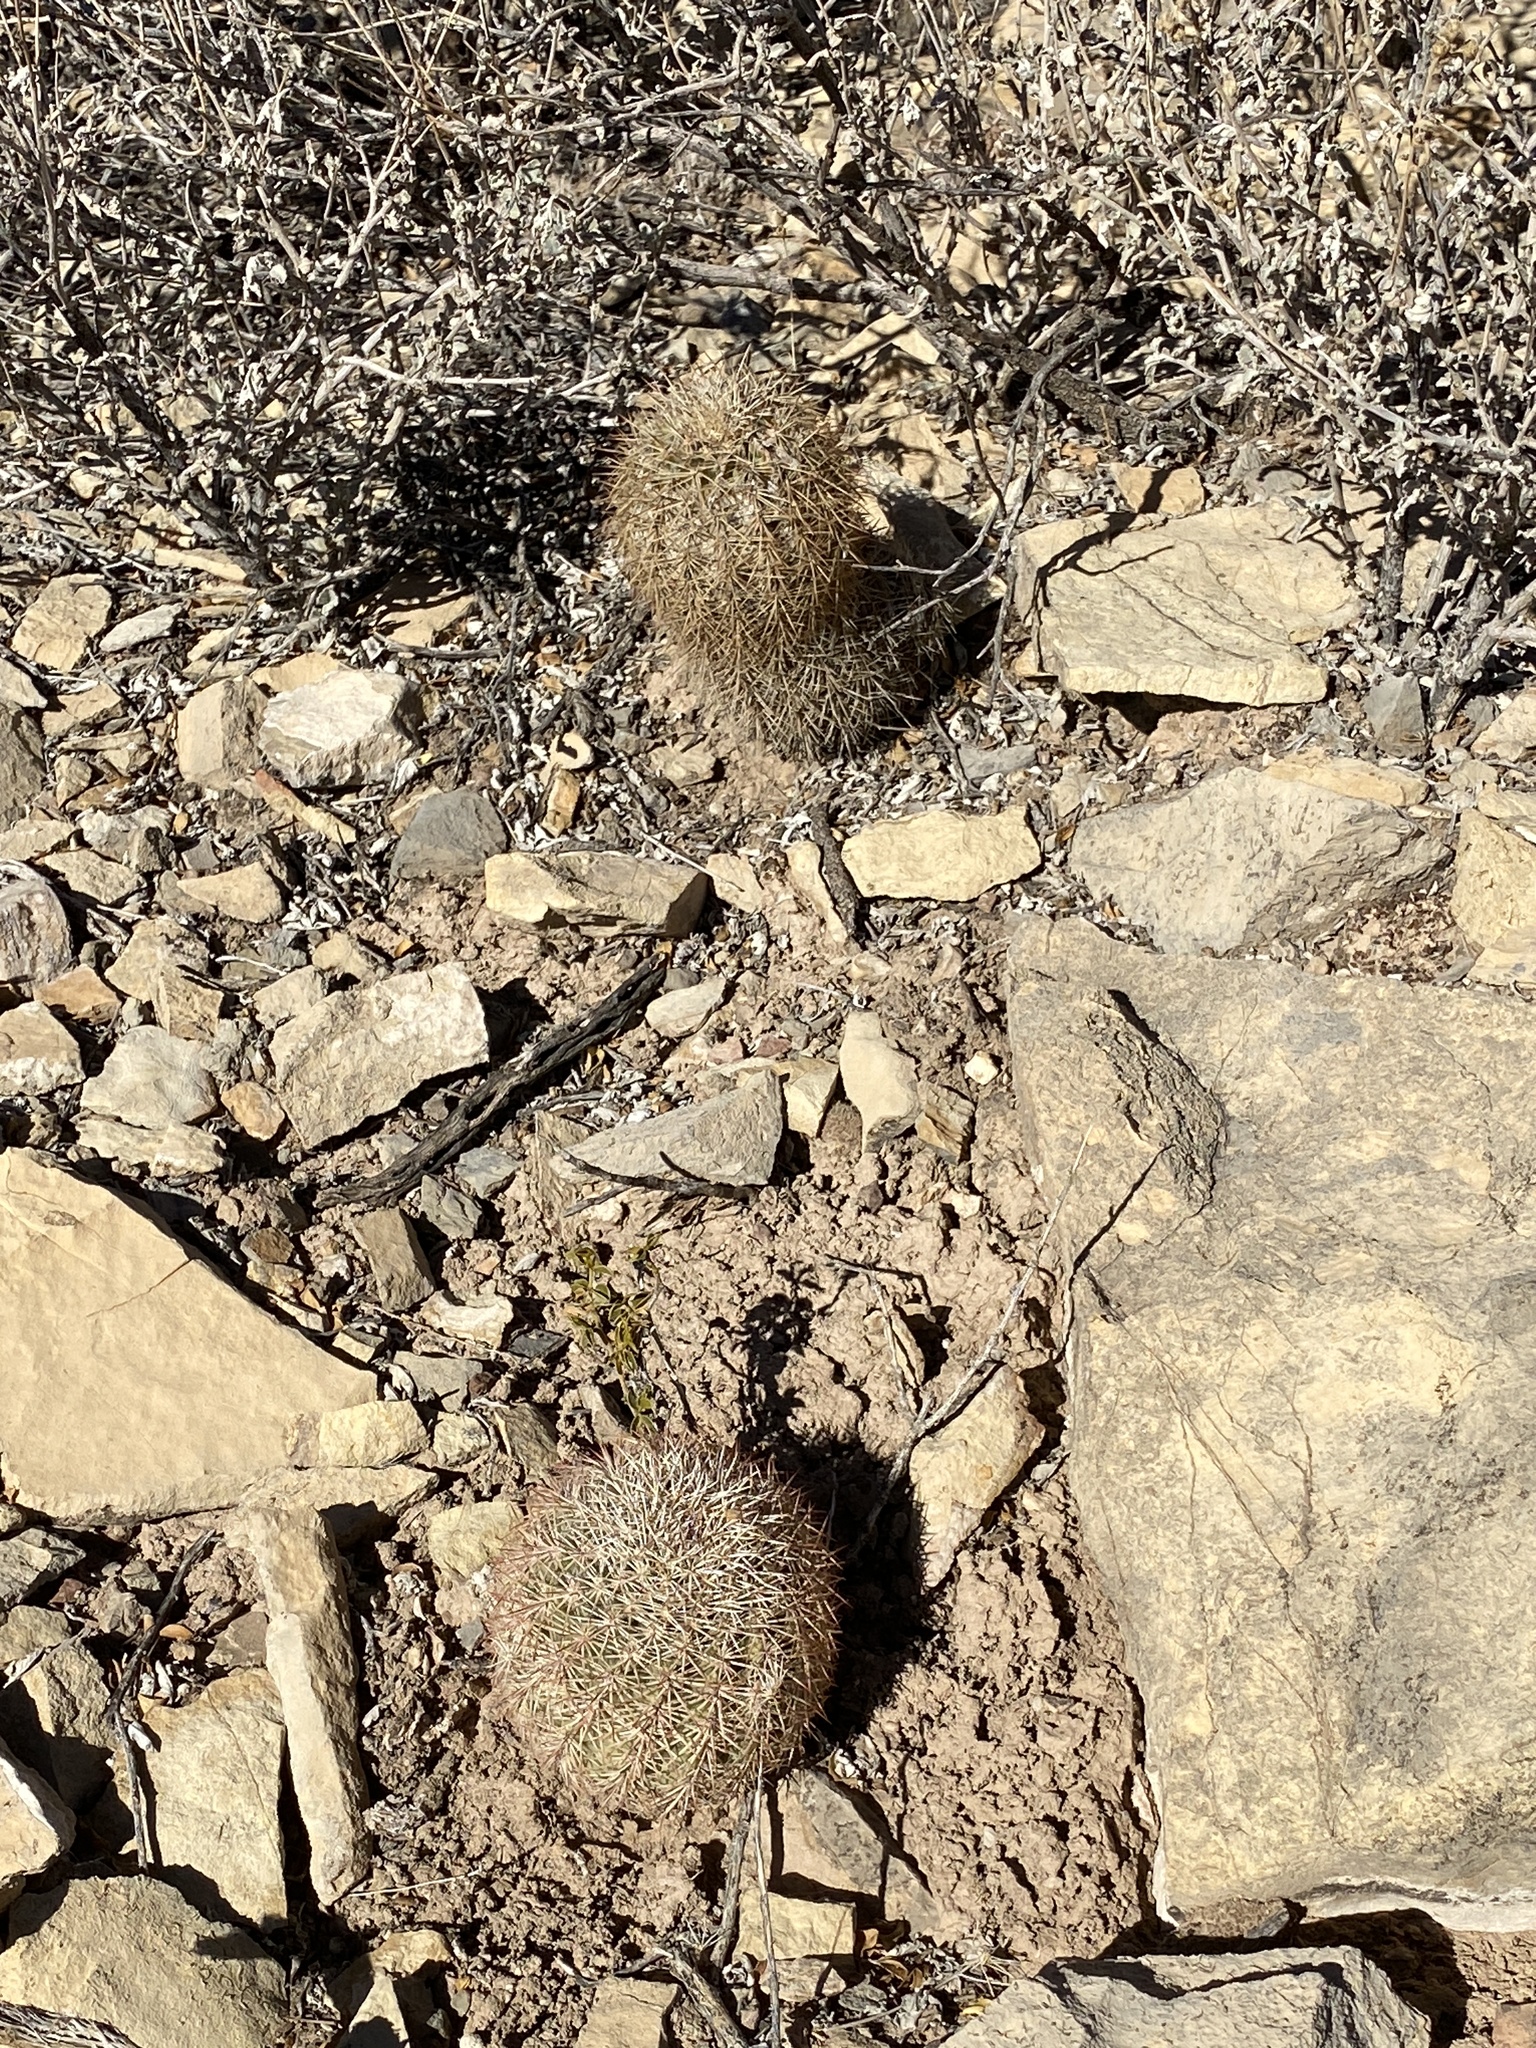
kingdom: Plantae
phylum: Tracheophyta
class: Magnoliopsida
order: Caryophyllales
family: Cactaceae
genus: Echinocereus
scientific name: Echinocereus dasyacanthus
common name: Spiny hedgehog cactus
